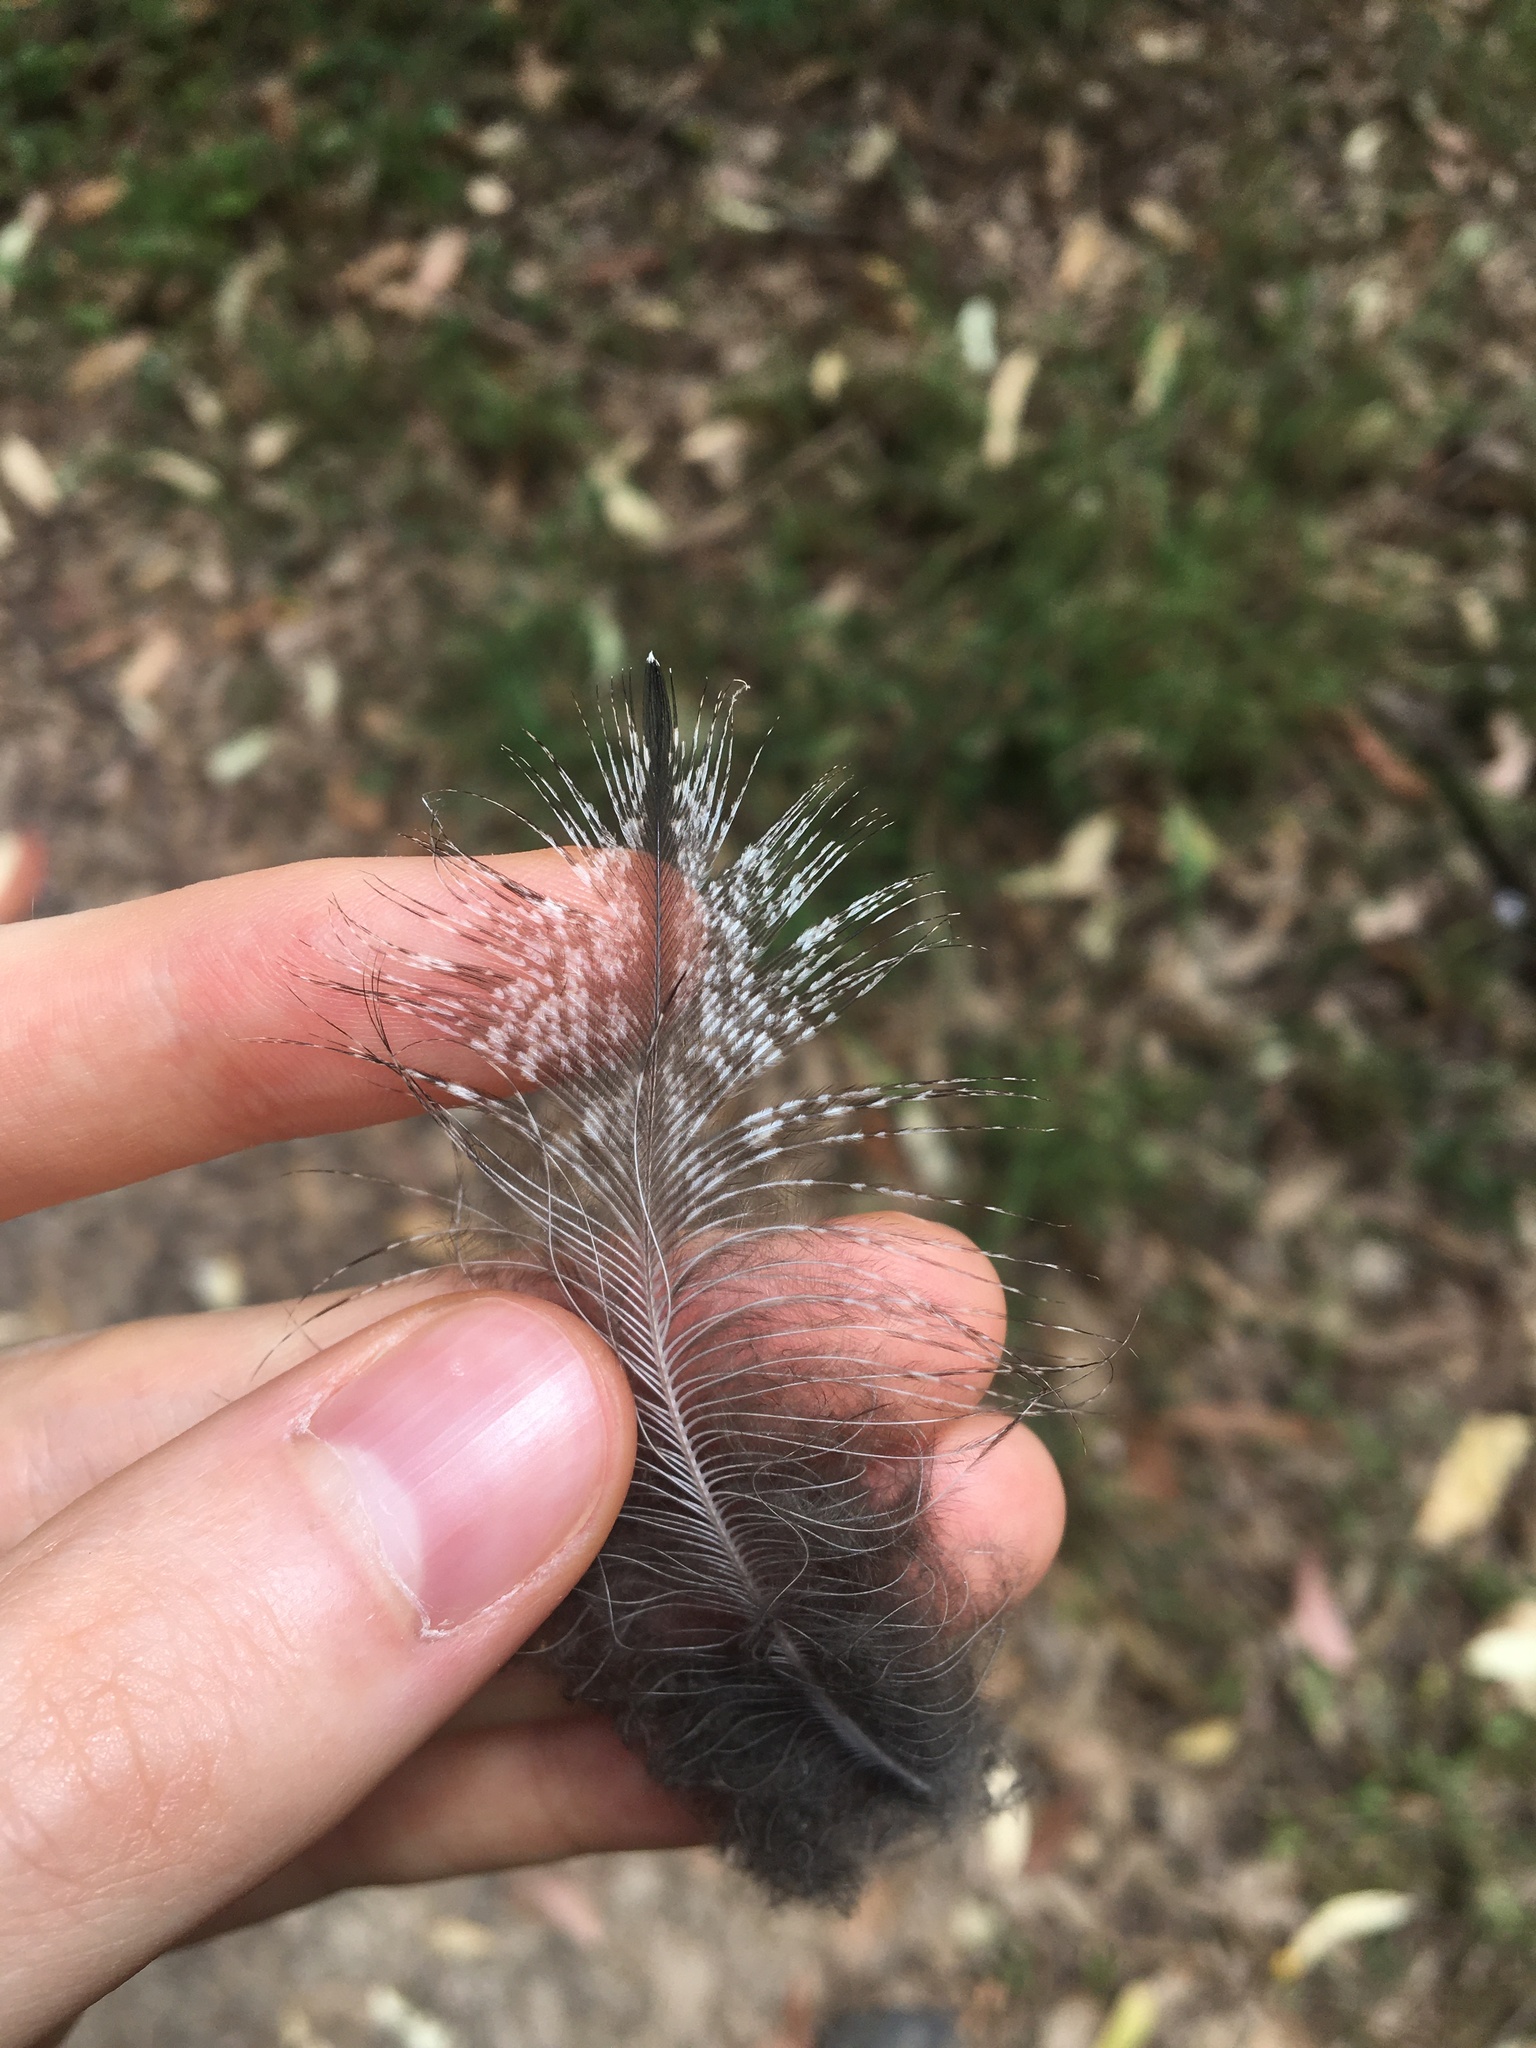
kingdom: Animalia
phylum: Chordata
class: Aves
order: Caprimulgiformes
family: Podargidae
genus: Podargus
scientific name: Podargus strigoides
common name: Tawny frogmouth
